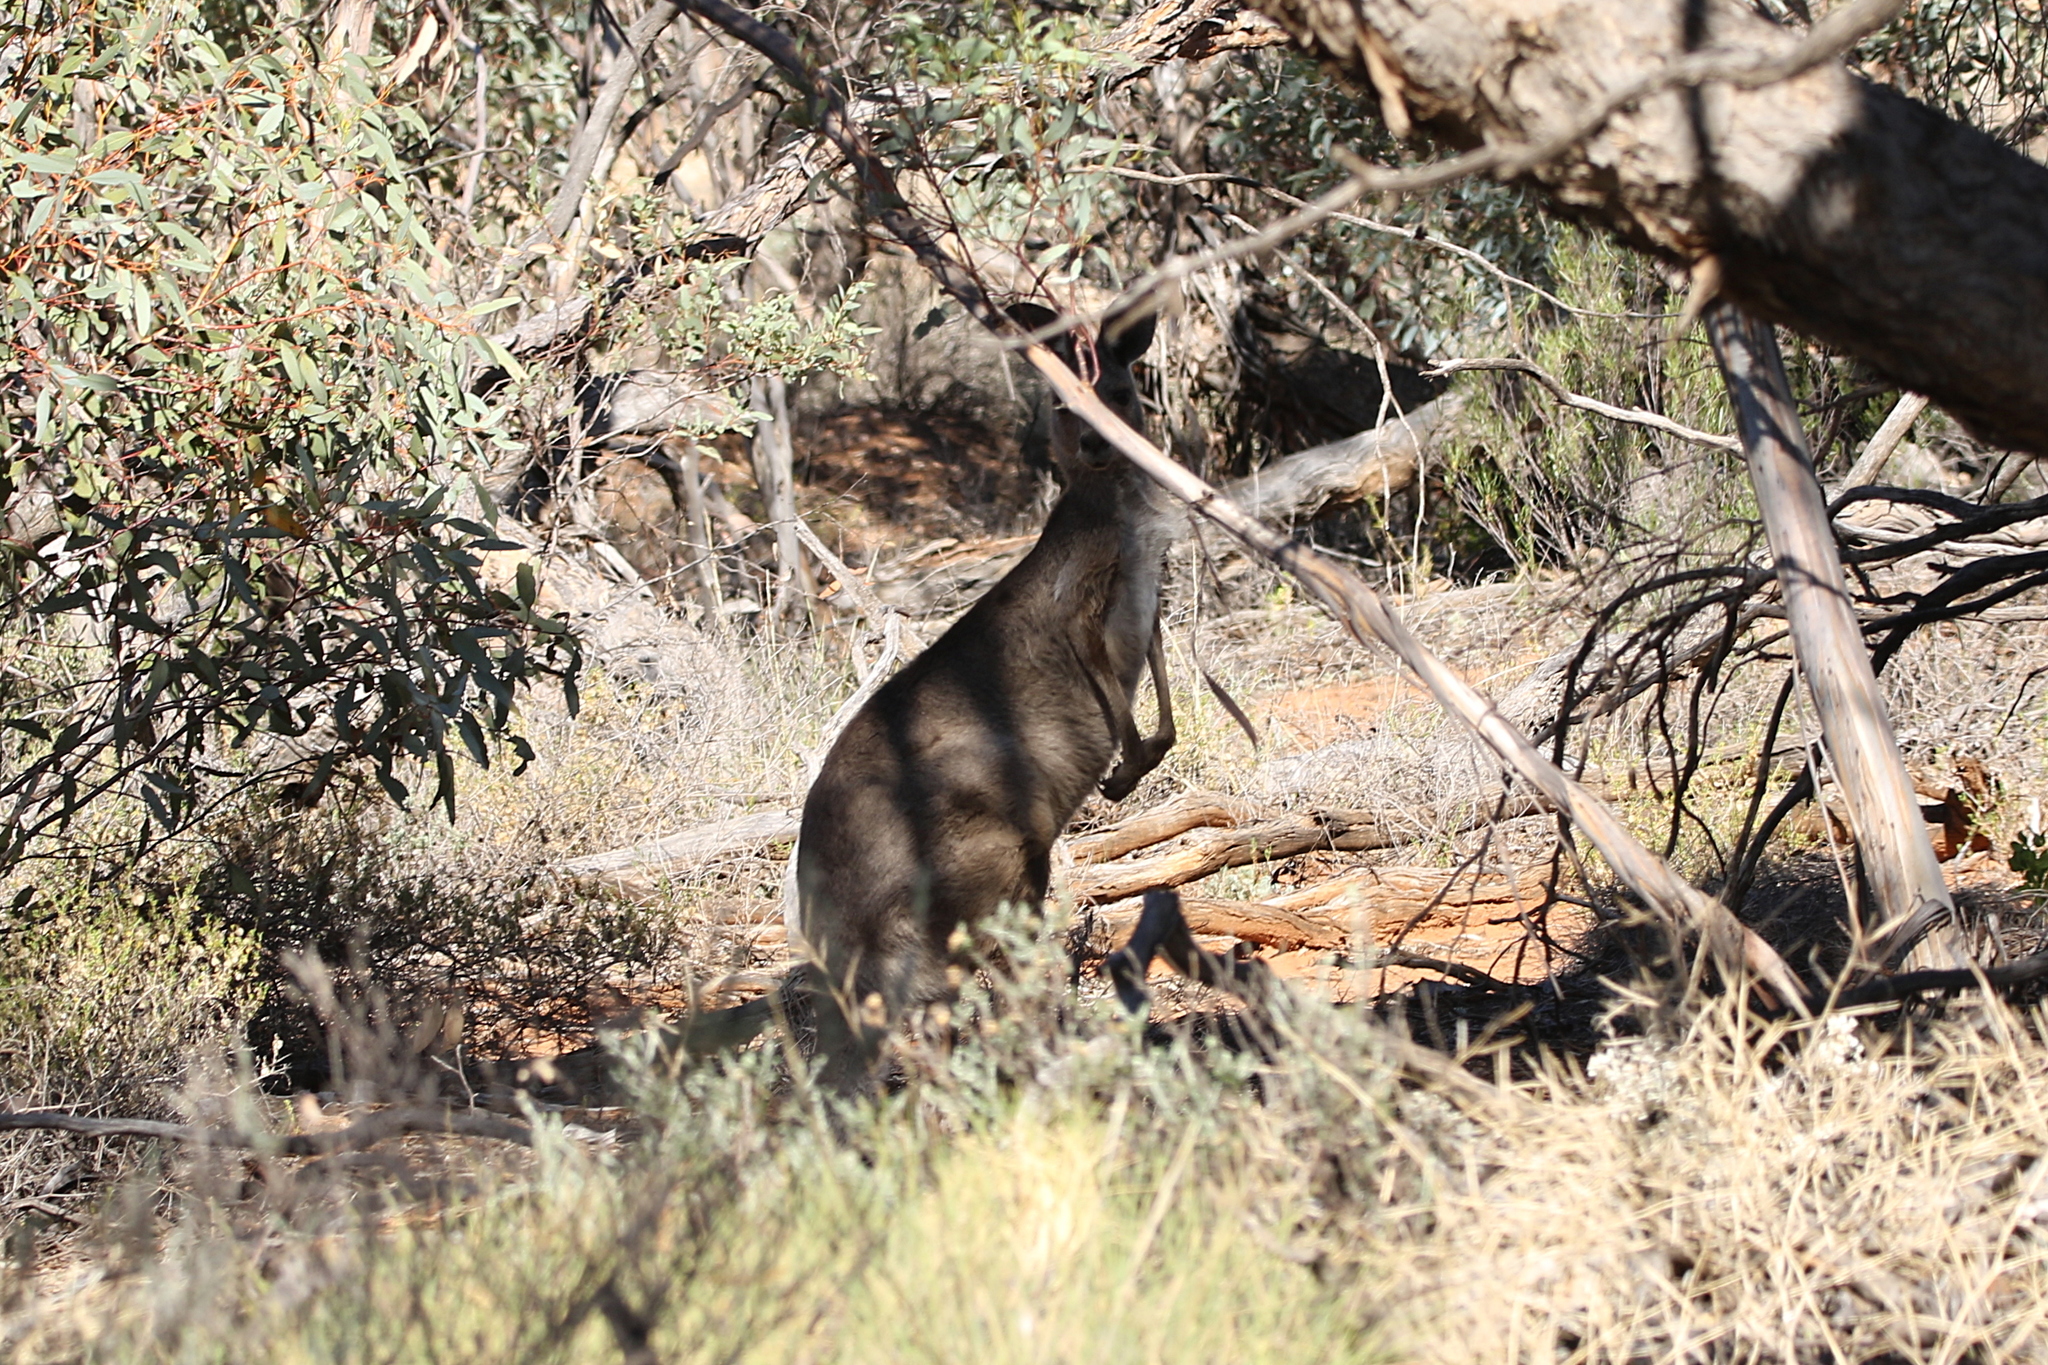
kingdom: Animalia
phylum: Chordata
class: Mammalia
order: Diprotodontia
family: Macropodidae
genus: Macropus
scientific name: Macropus fuliginosus
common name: Western grey kangaroo
